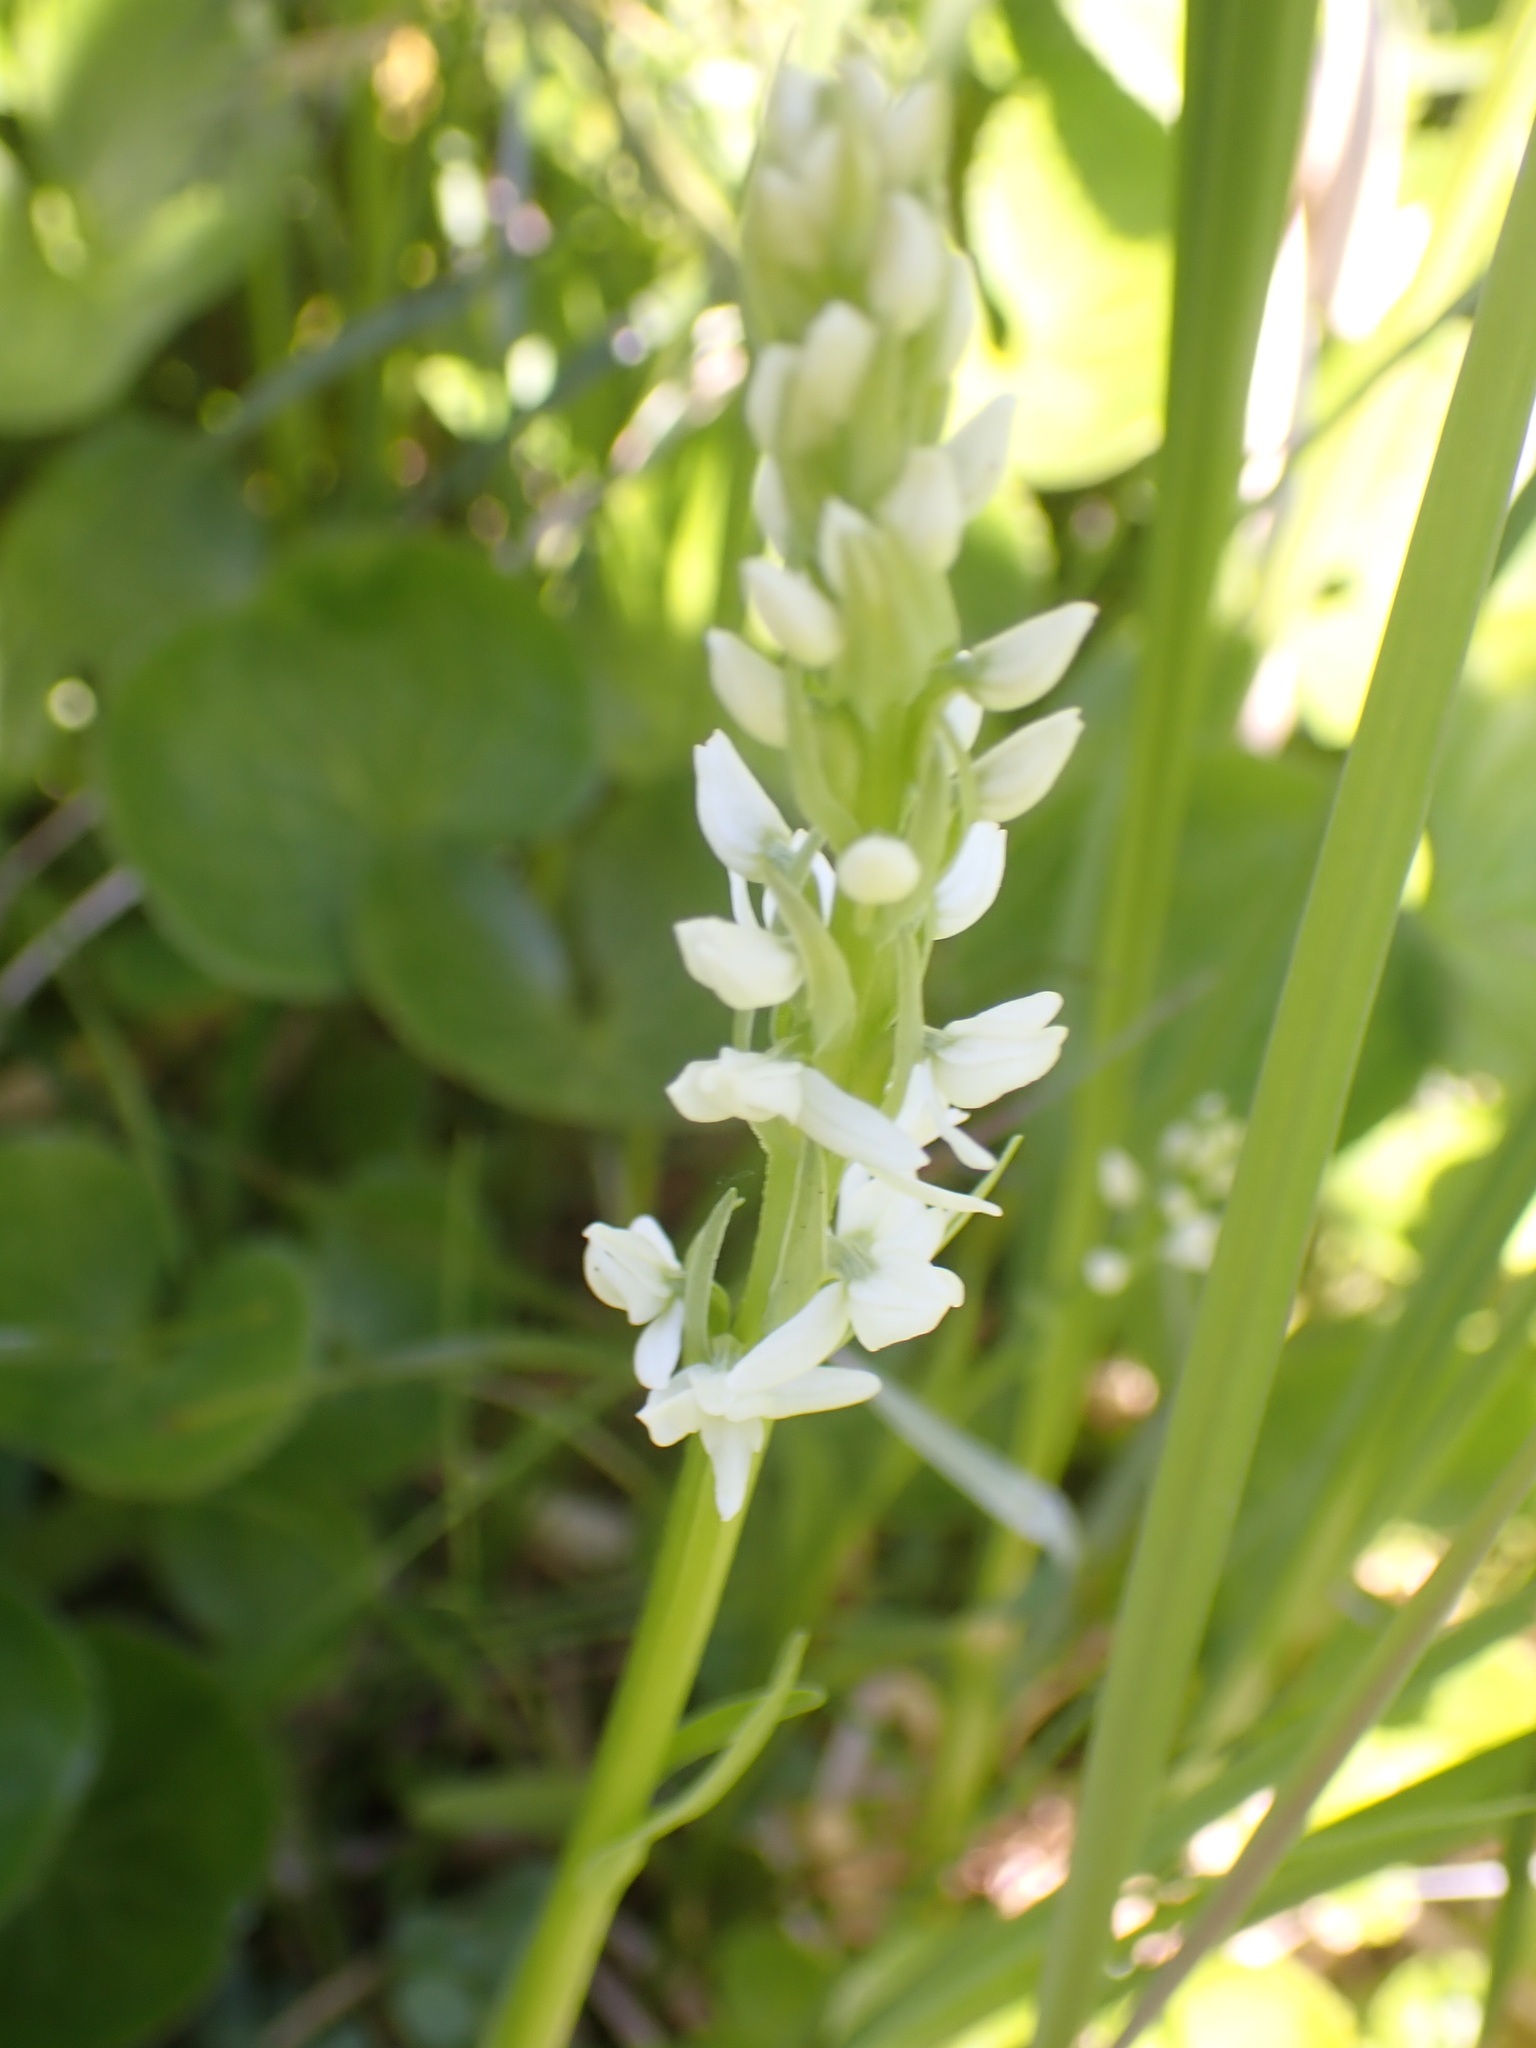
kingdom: Plantae
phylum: Tracheophyta
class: Liliopsida
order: Asparagales
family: Orchidaceae
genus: Platanthera
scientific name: Platanthera dilatata
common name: Bog candles
